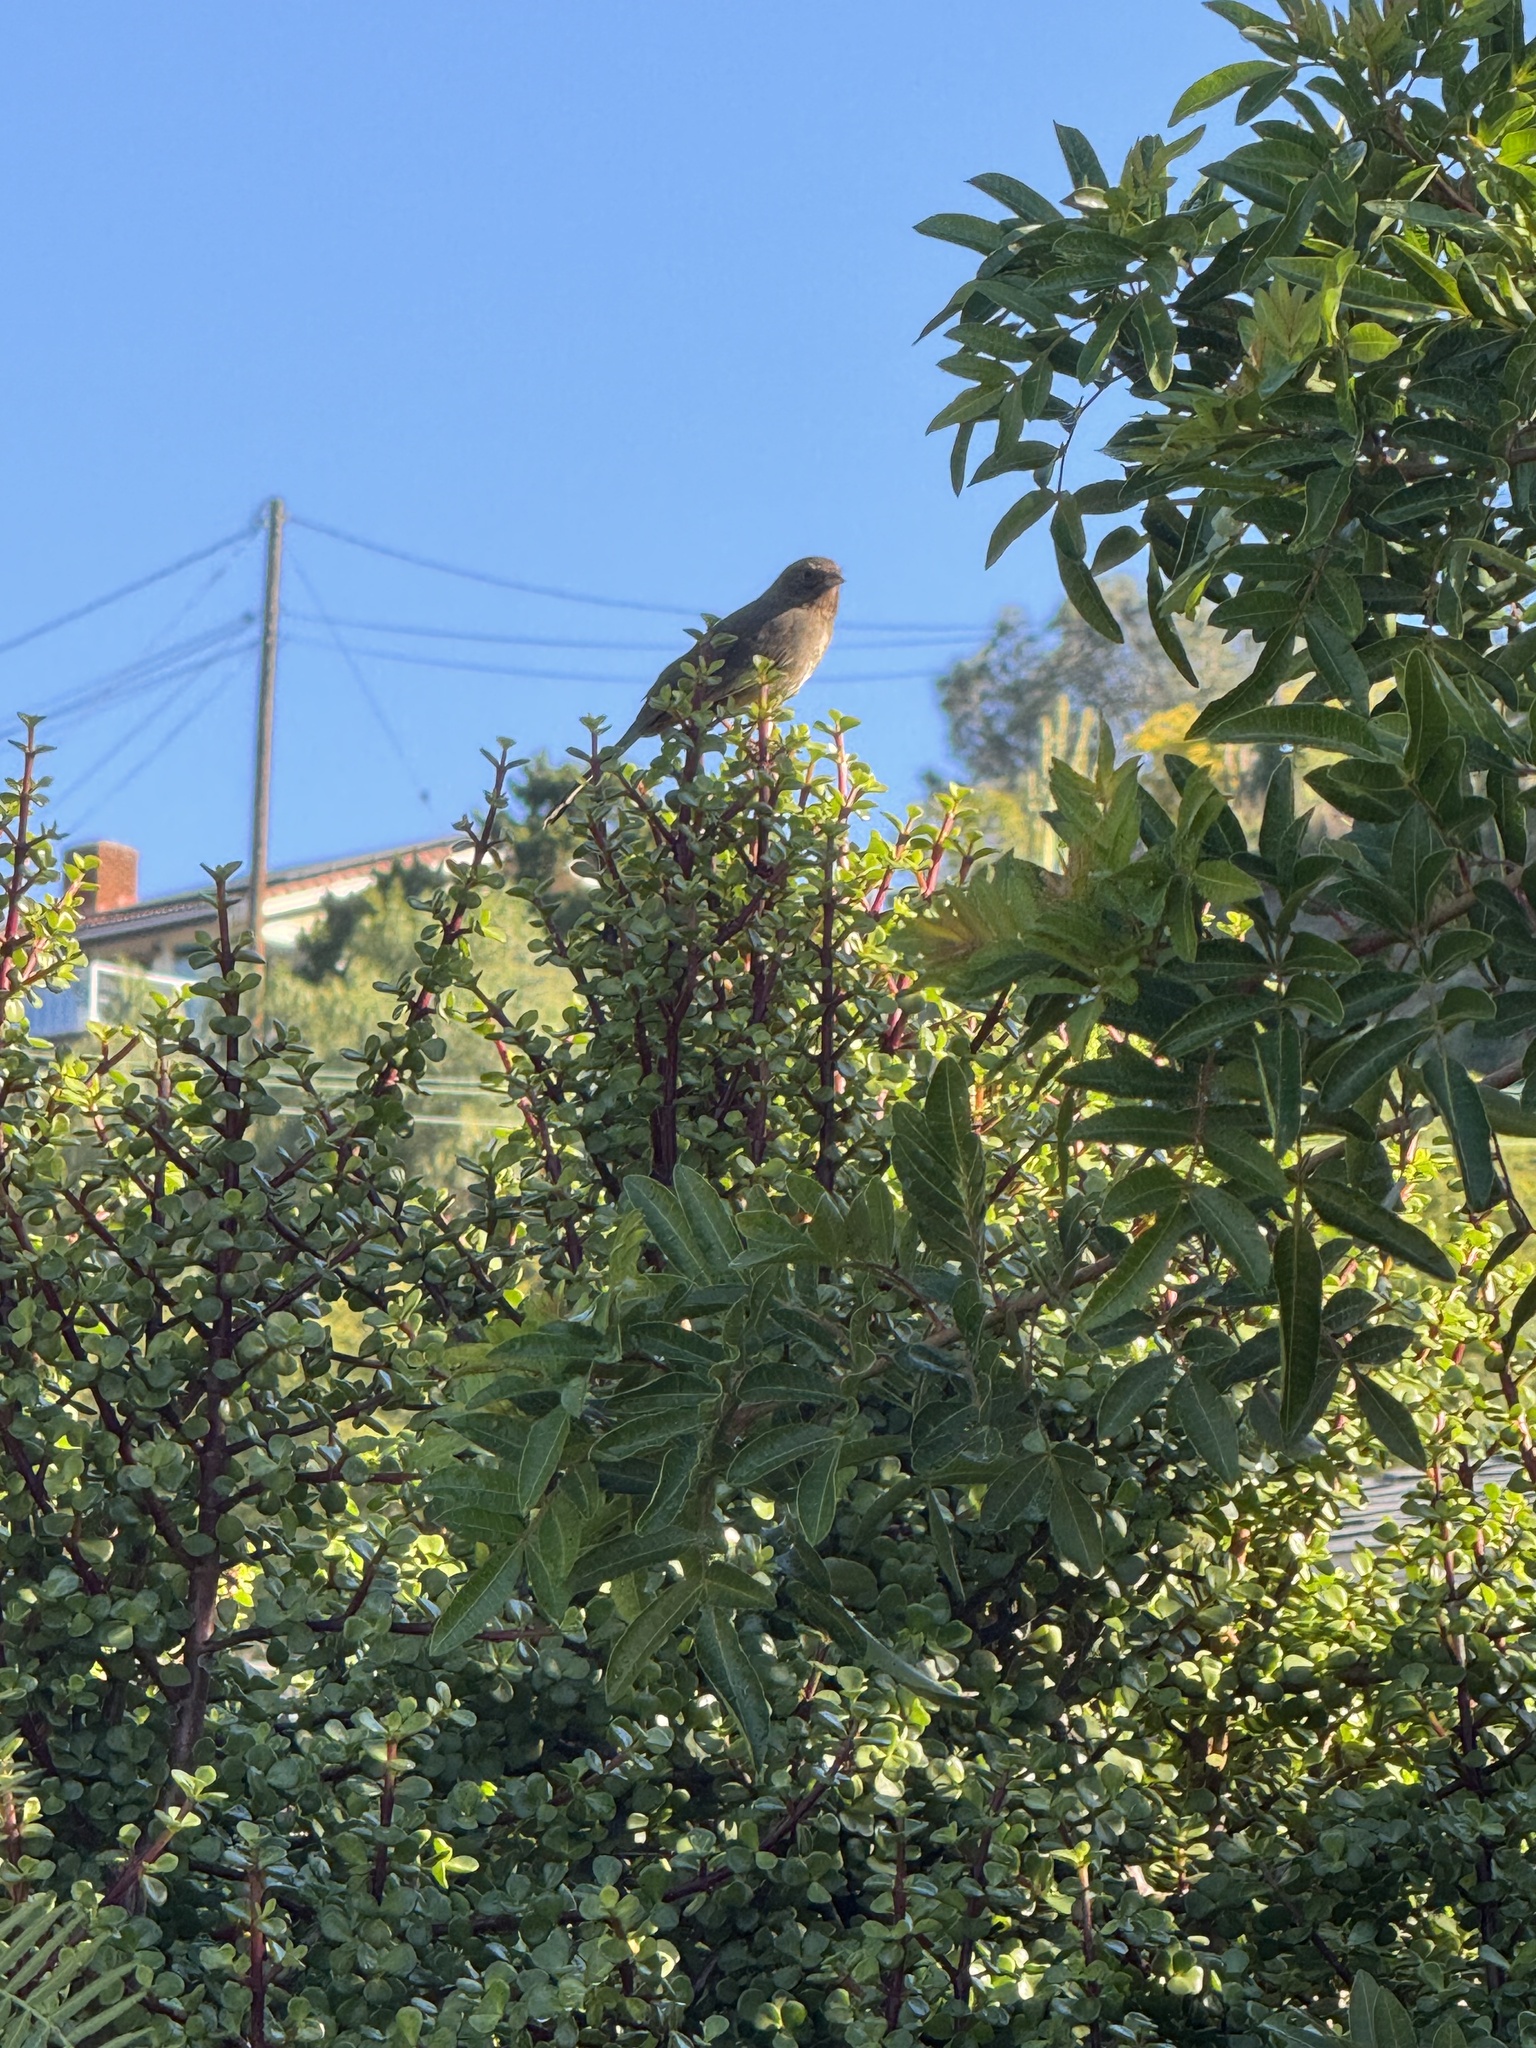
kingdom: Animalia
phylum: Chordata
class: Aves
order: Passeriformes
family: Passerellidae
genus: Melozone
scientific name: Melozone crissalis
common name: California towhee
